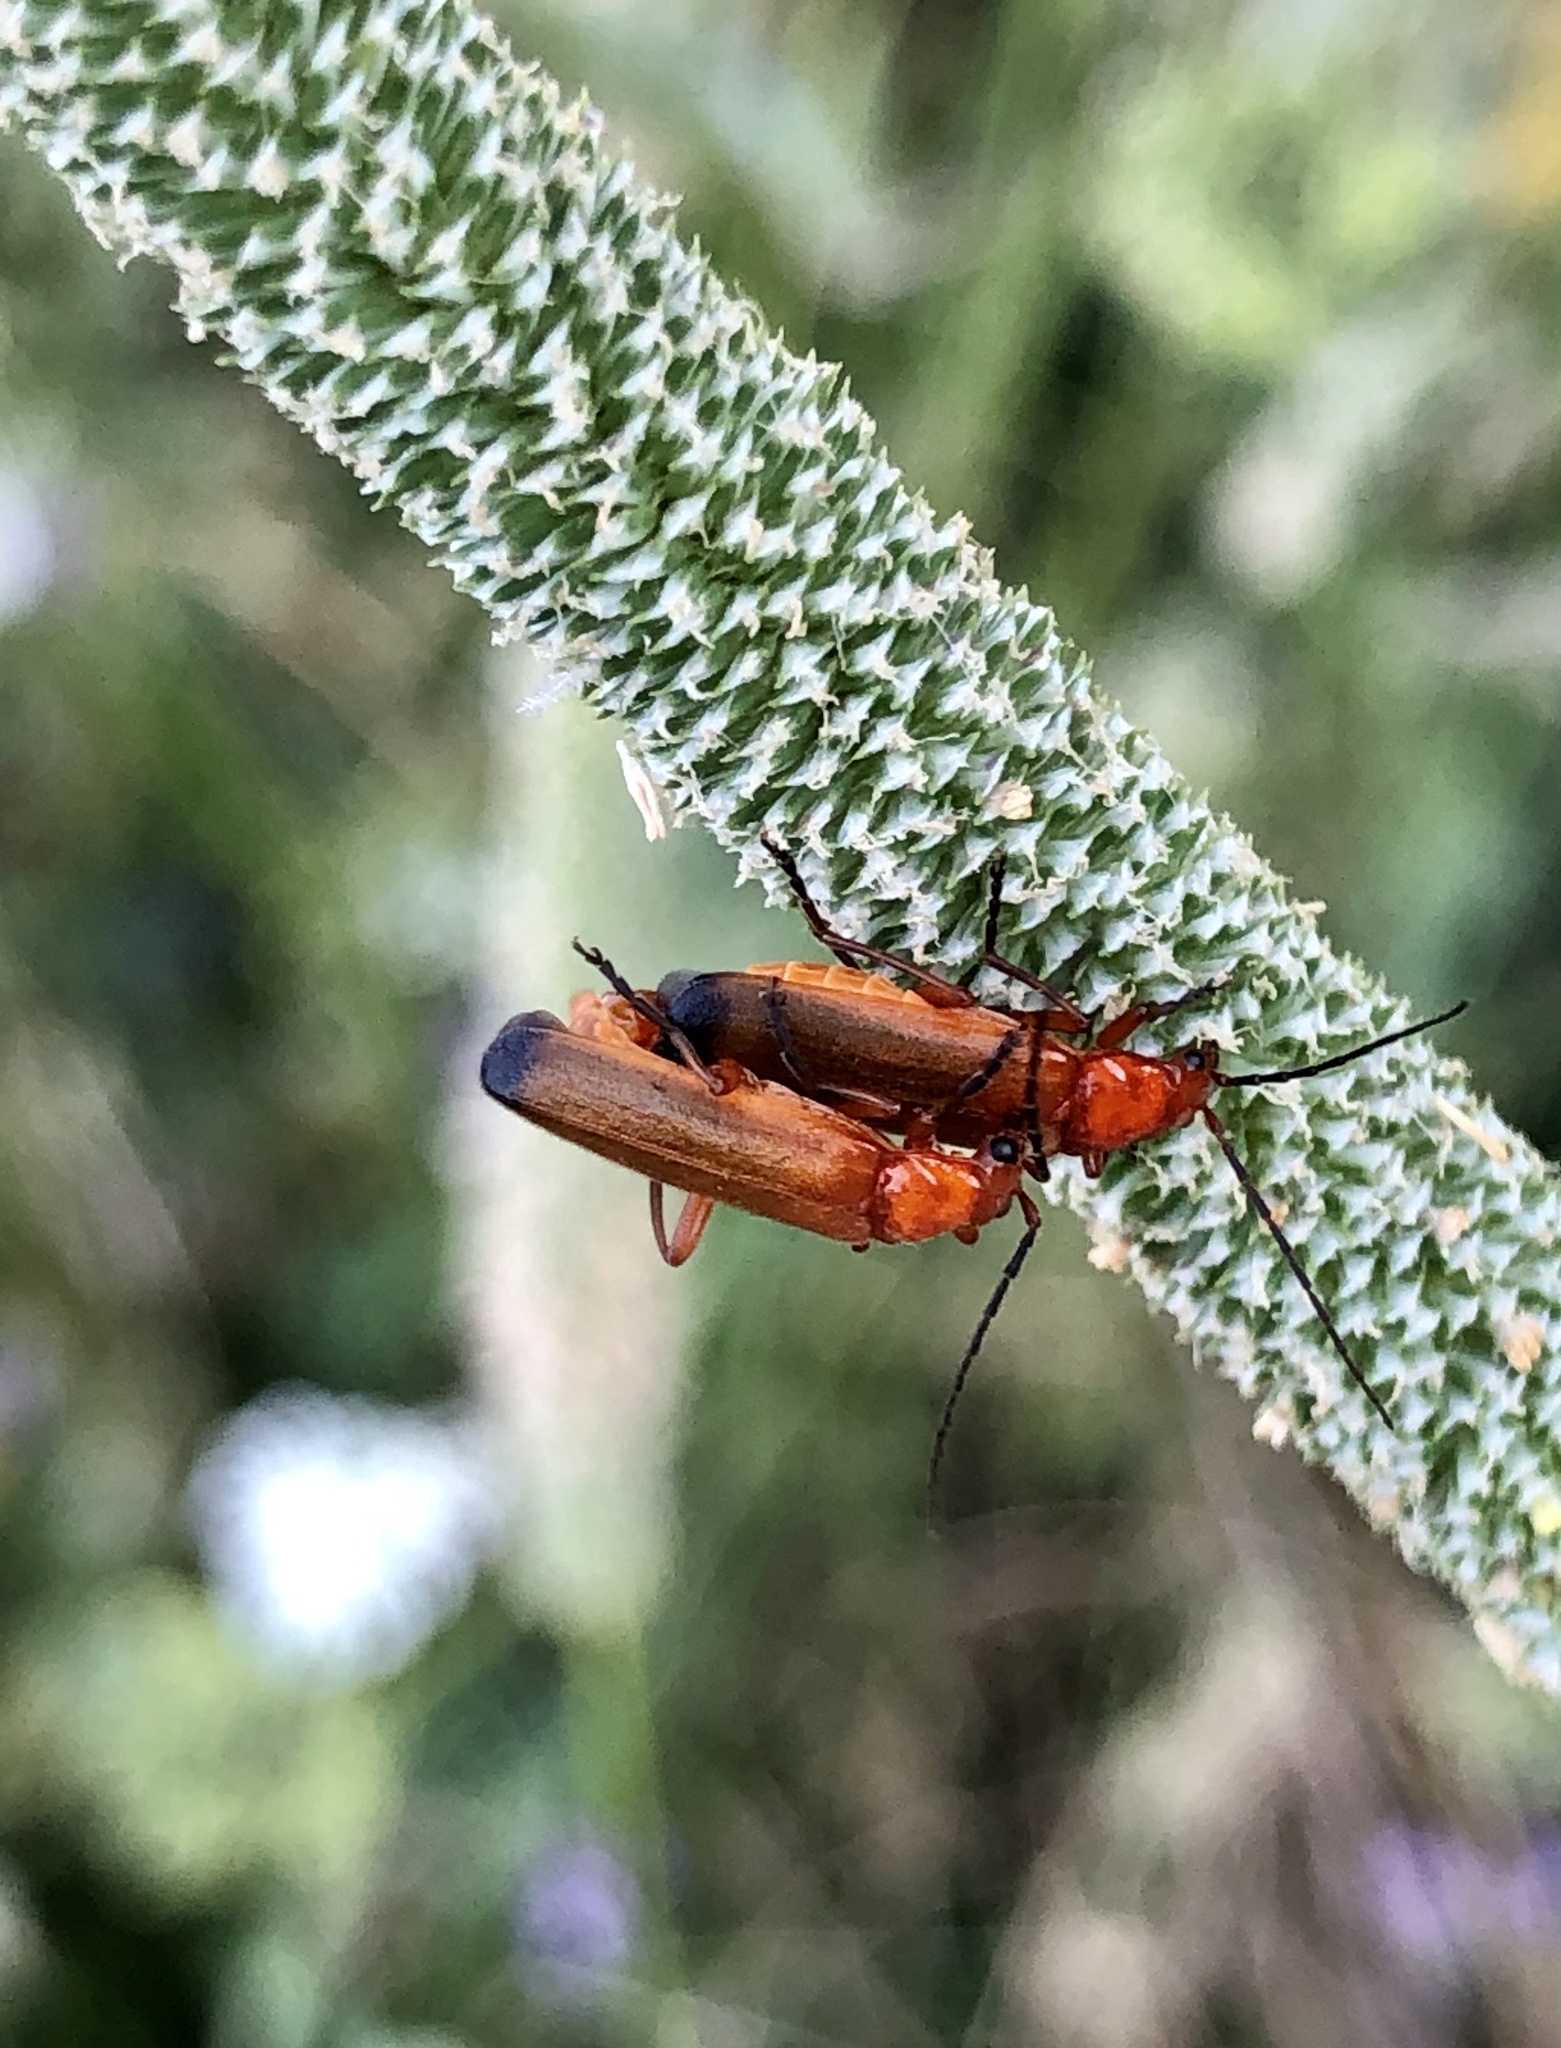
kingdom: Animalia
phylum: Arthropoda
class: Insecta
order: Coleoptera
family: Cantharidae
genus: Rhagonycha
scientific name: Rhagonycha fulva
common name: Common red soldier beetle
